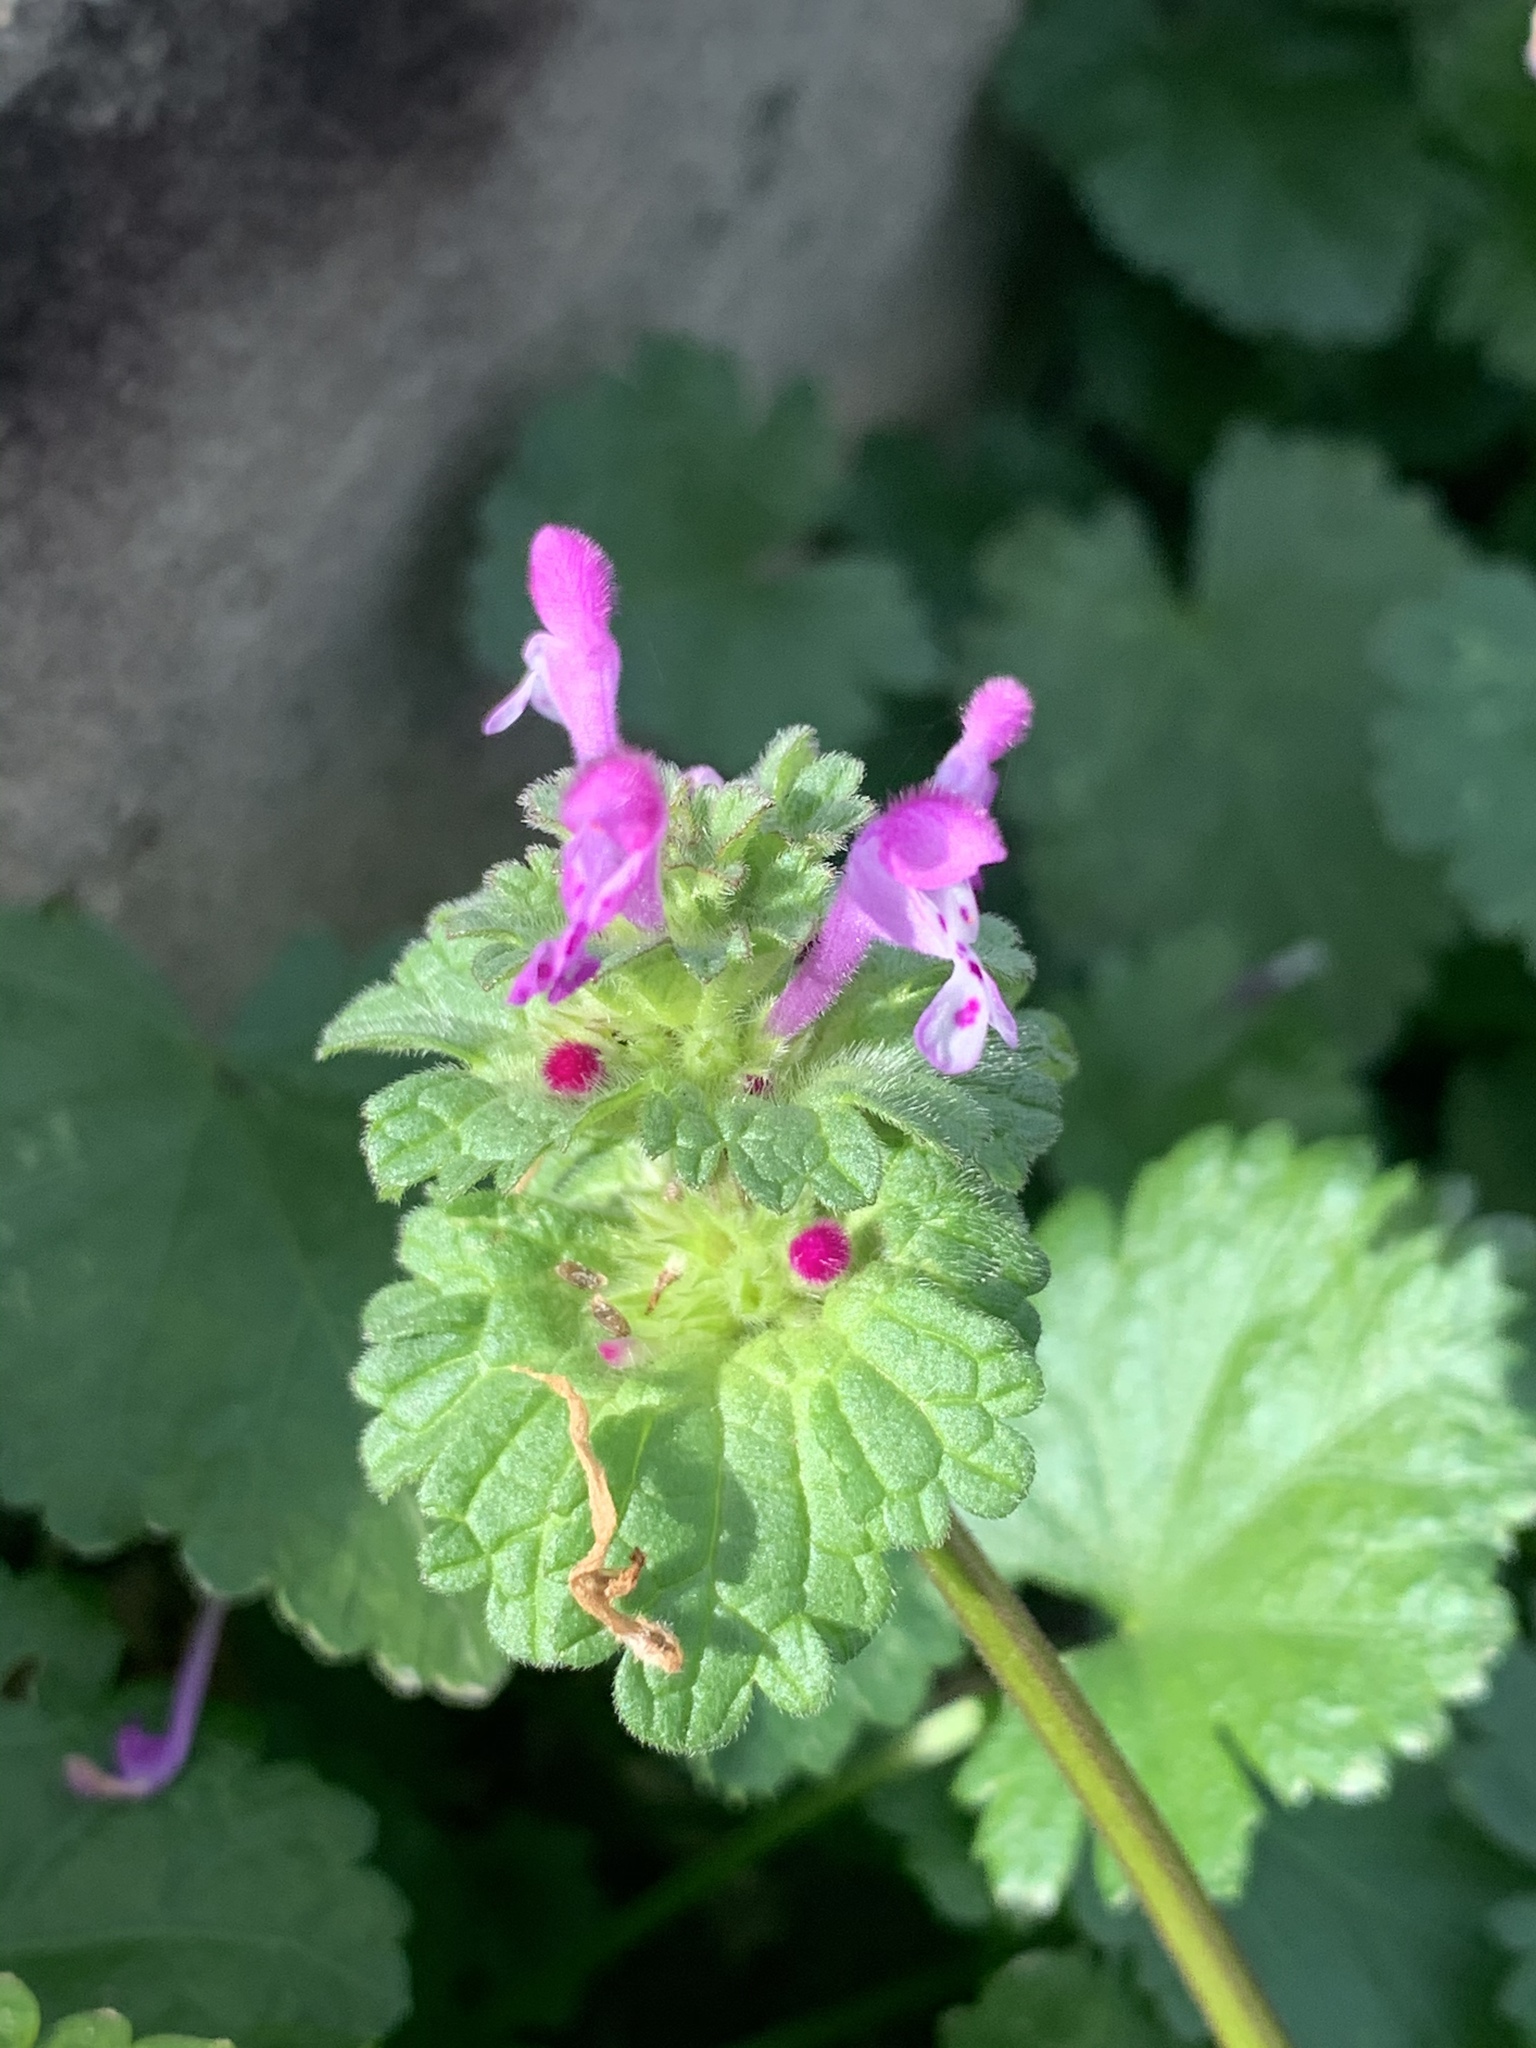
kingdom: Plantae
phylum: Tracheophyta
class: Magnoliopsida
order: Lamiales
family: Lamiaceae
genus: Lamium
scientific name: Lamium amplexicaule
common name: Henbit dead-nettle
